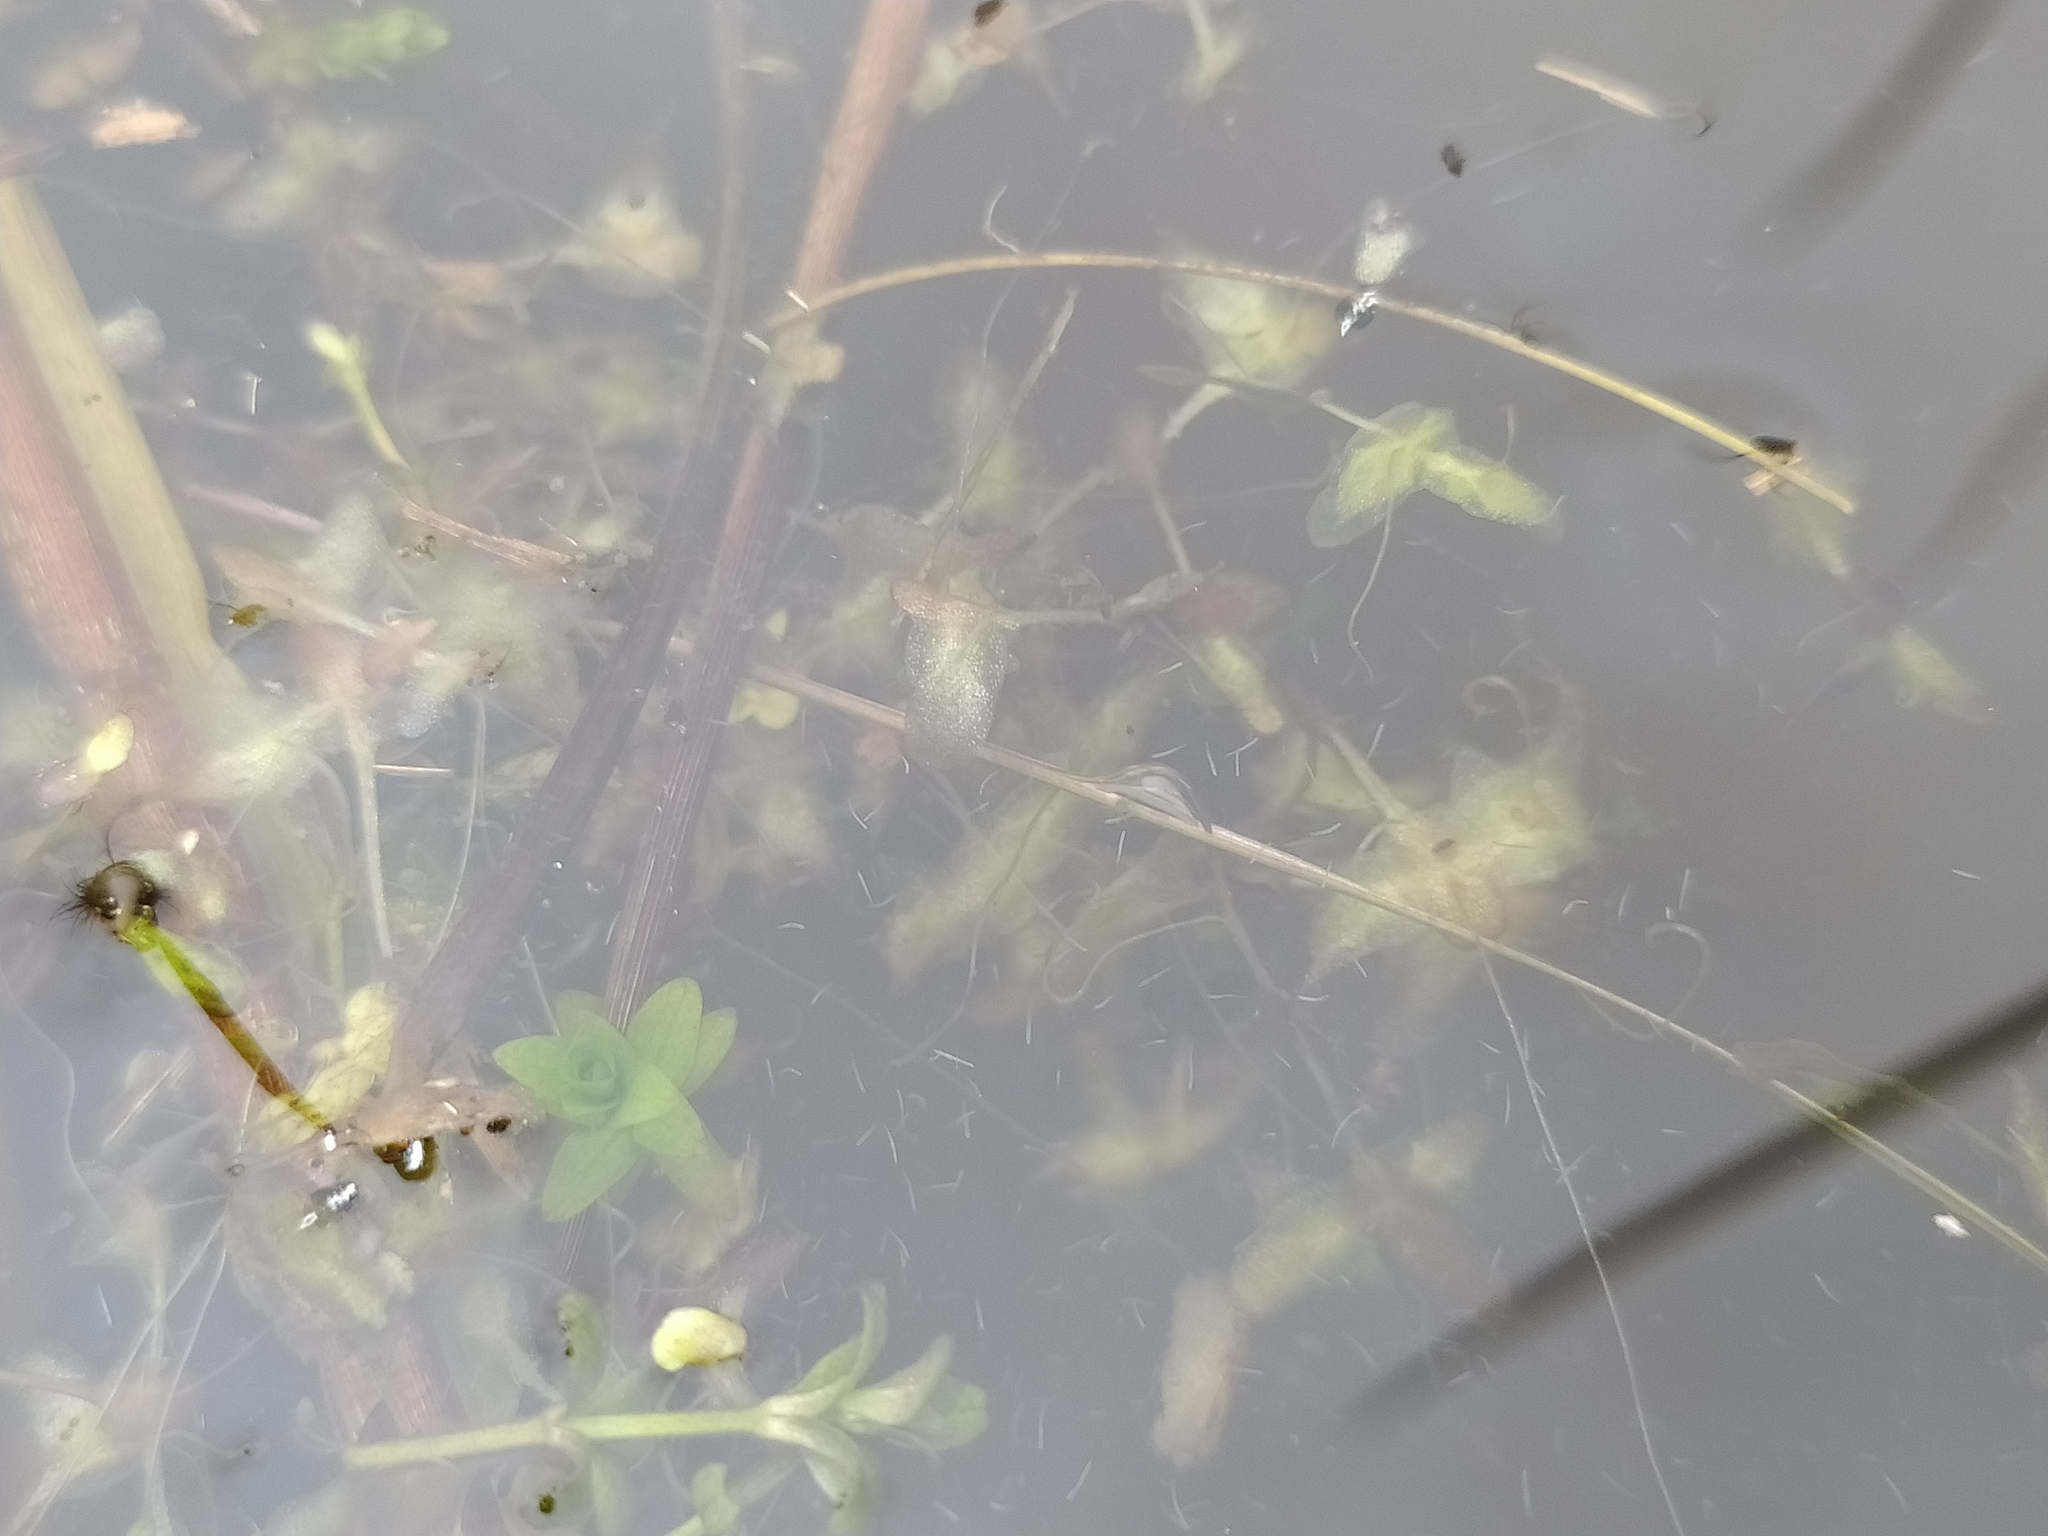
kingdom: Plantae
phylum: Tracheophyta
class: Liliopsida
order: Alismatales
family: Araceae
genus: Lemna
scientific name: Lemna trisulca
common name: Ivy-leaved duckweed
